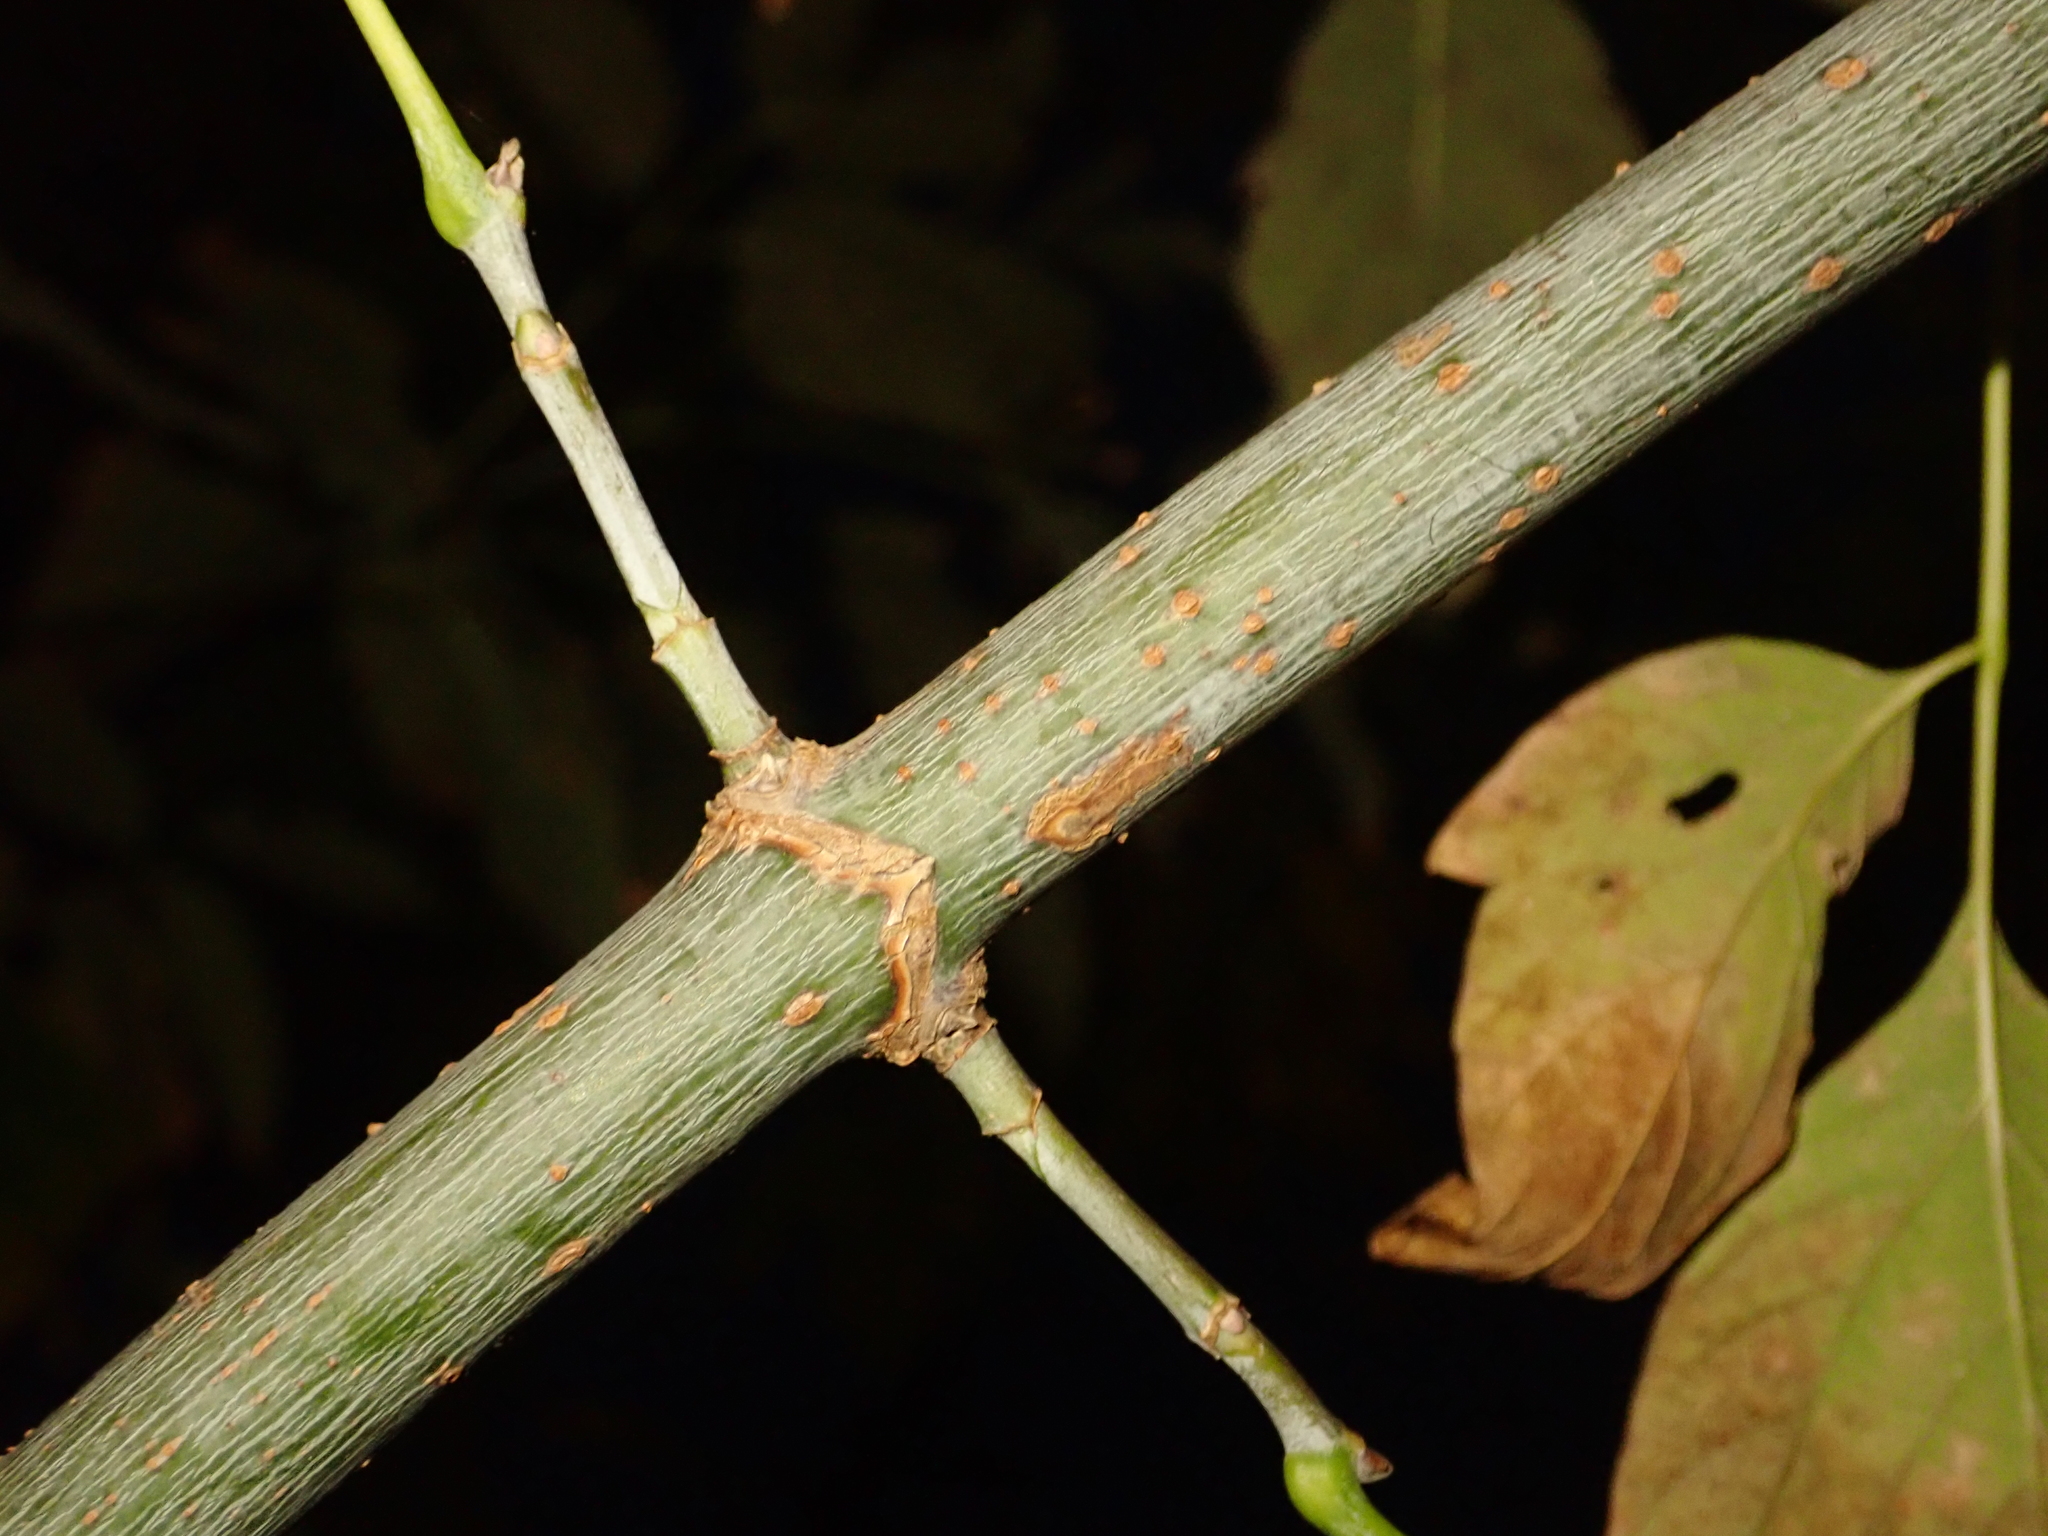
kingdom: Plantae
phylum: Tracheophyta
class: Magnoliopsida
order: Sapindales
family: Sapindaceae
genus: Acer
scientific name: Acer negundo
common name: Ashleaf maple
